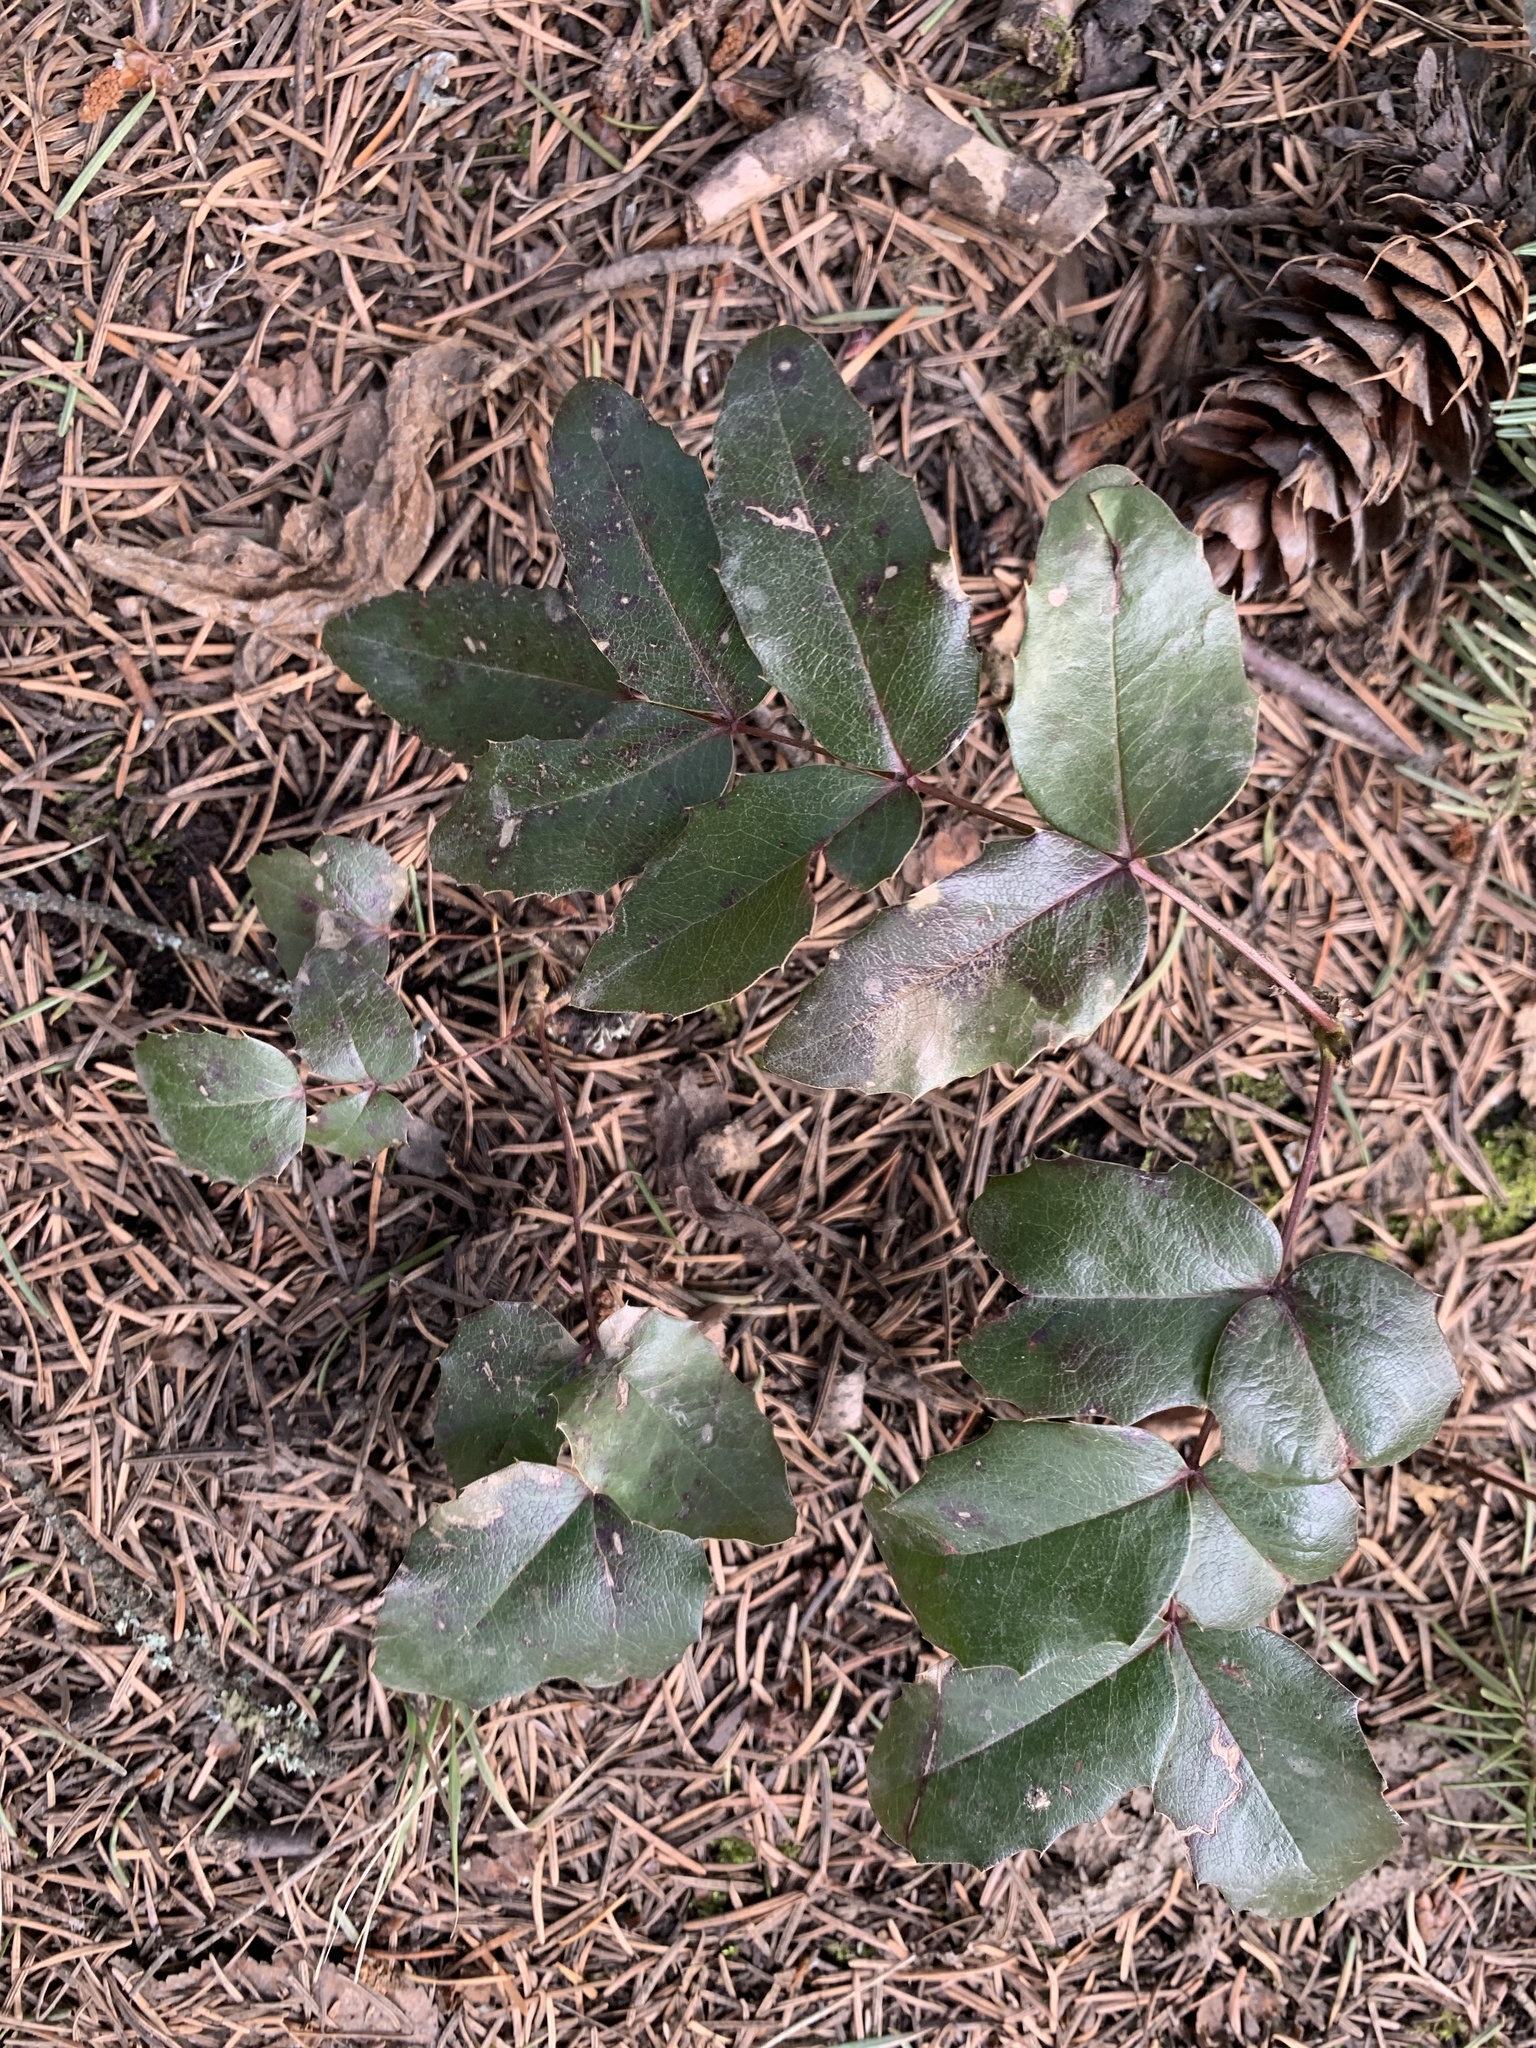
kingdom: Plantae
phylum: Tracheophyta
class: Magnoliopsida
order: Ranunculales
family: Berberidaceae
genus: Mahonia
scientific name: Mahonia aquifolium
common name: Oregon-grape
